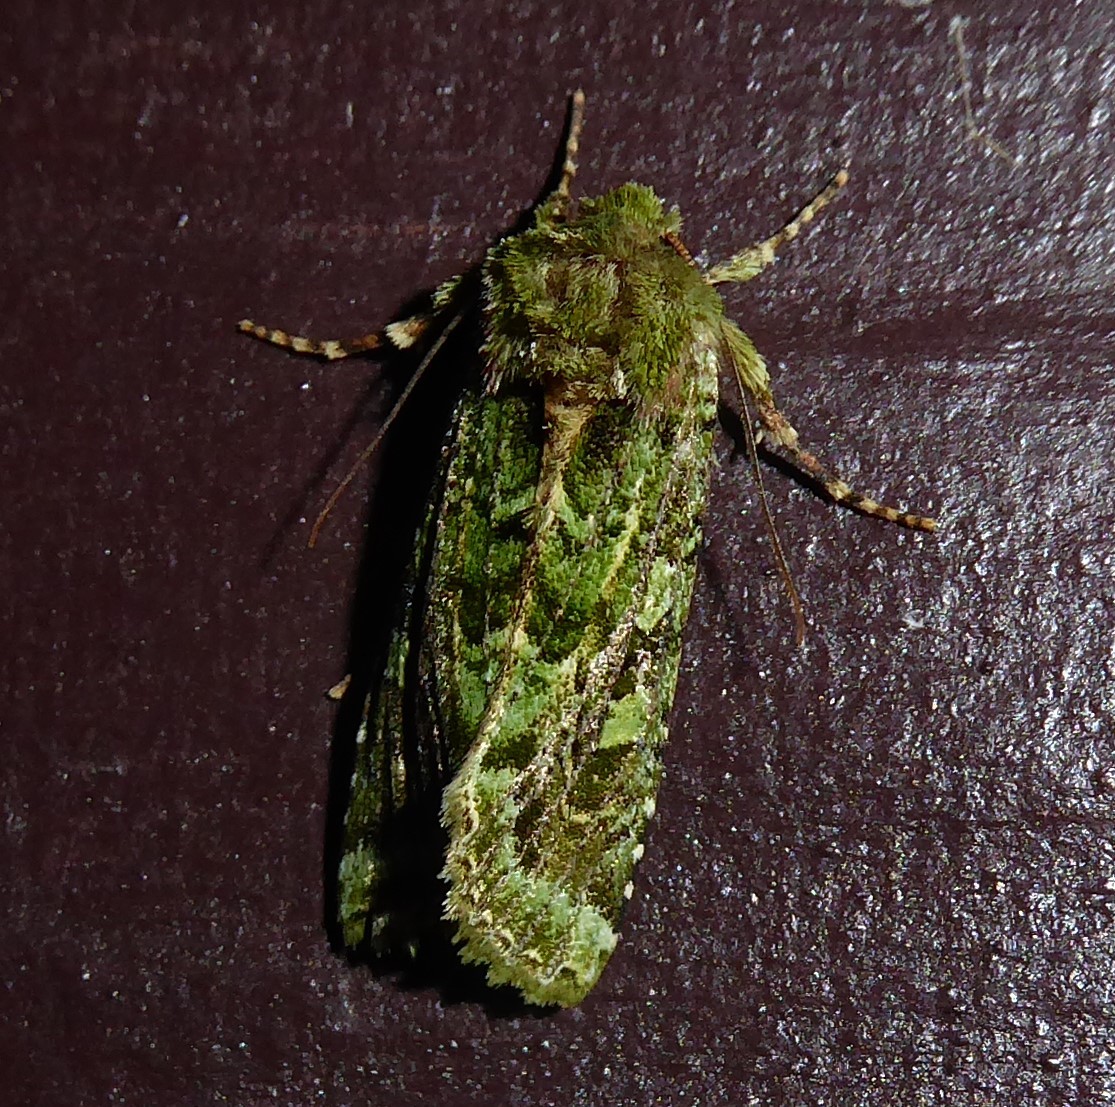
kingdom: Animalia
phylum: Arthropoda
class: Insecta
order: Lepidoptera
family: Noctuidae
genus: Feredayia
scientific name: Feredayia grammosa
